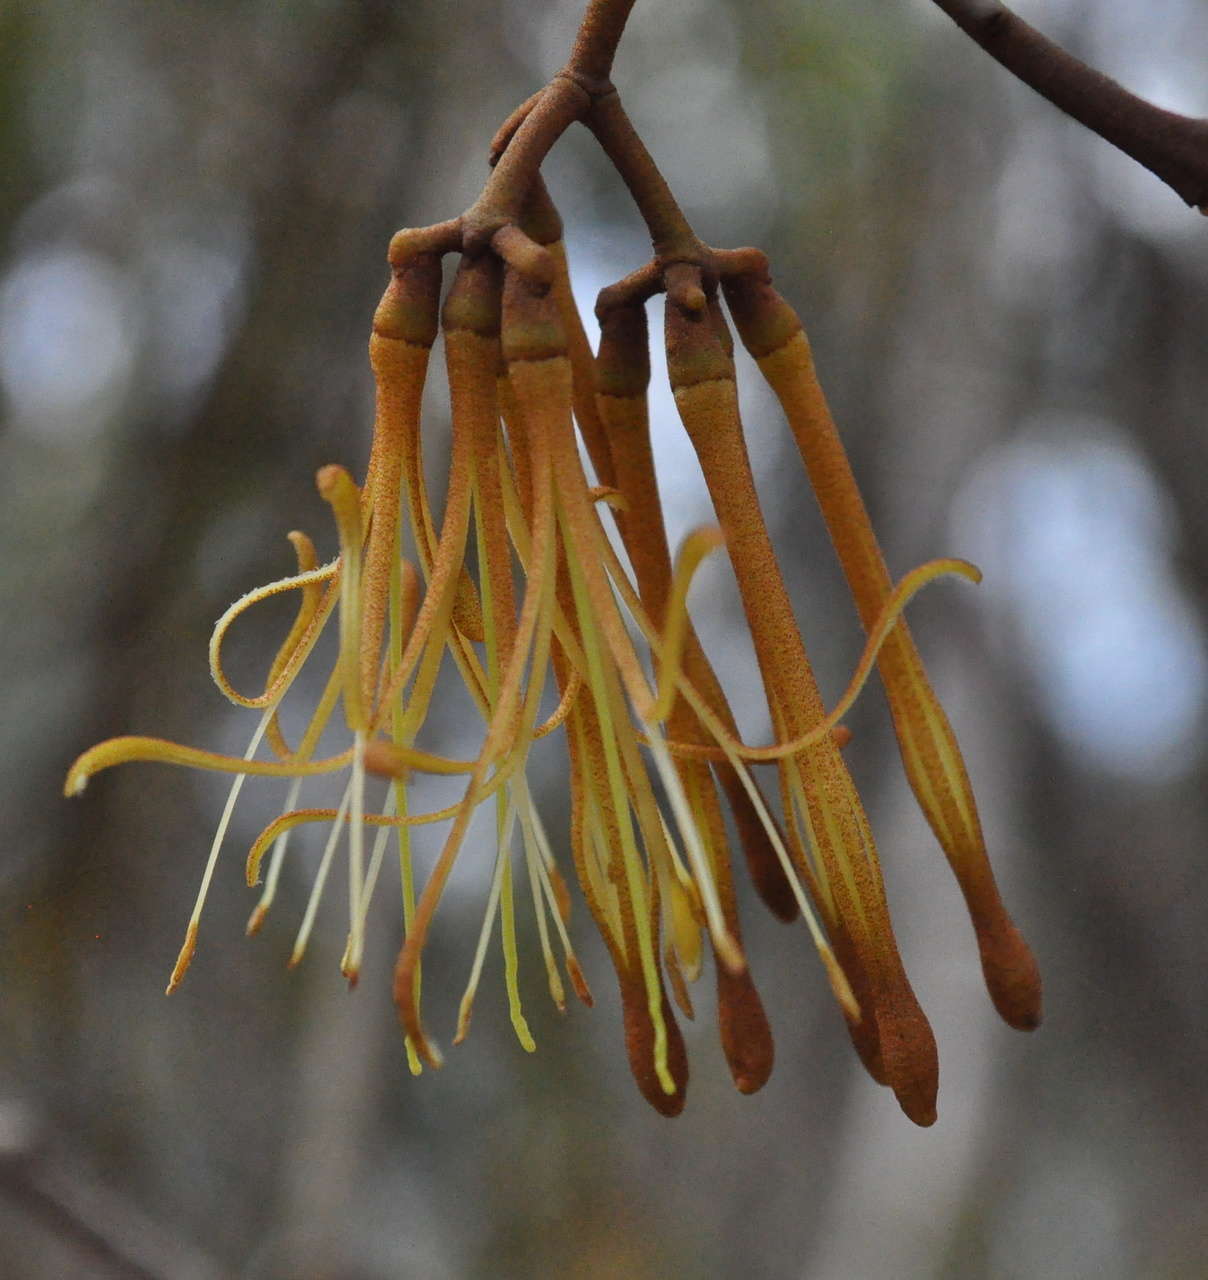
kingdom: Plantae
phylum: Tracheophyta
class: Magnoliopsida
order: Santalales
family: Loranthaceae
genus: Amyema
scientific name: Amyema pendula
